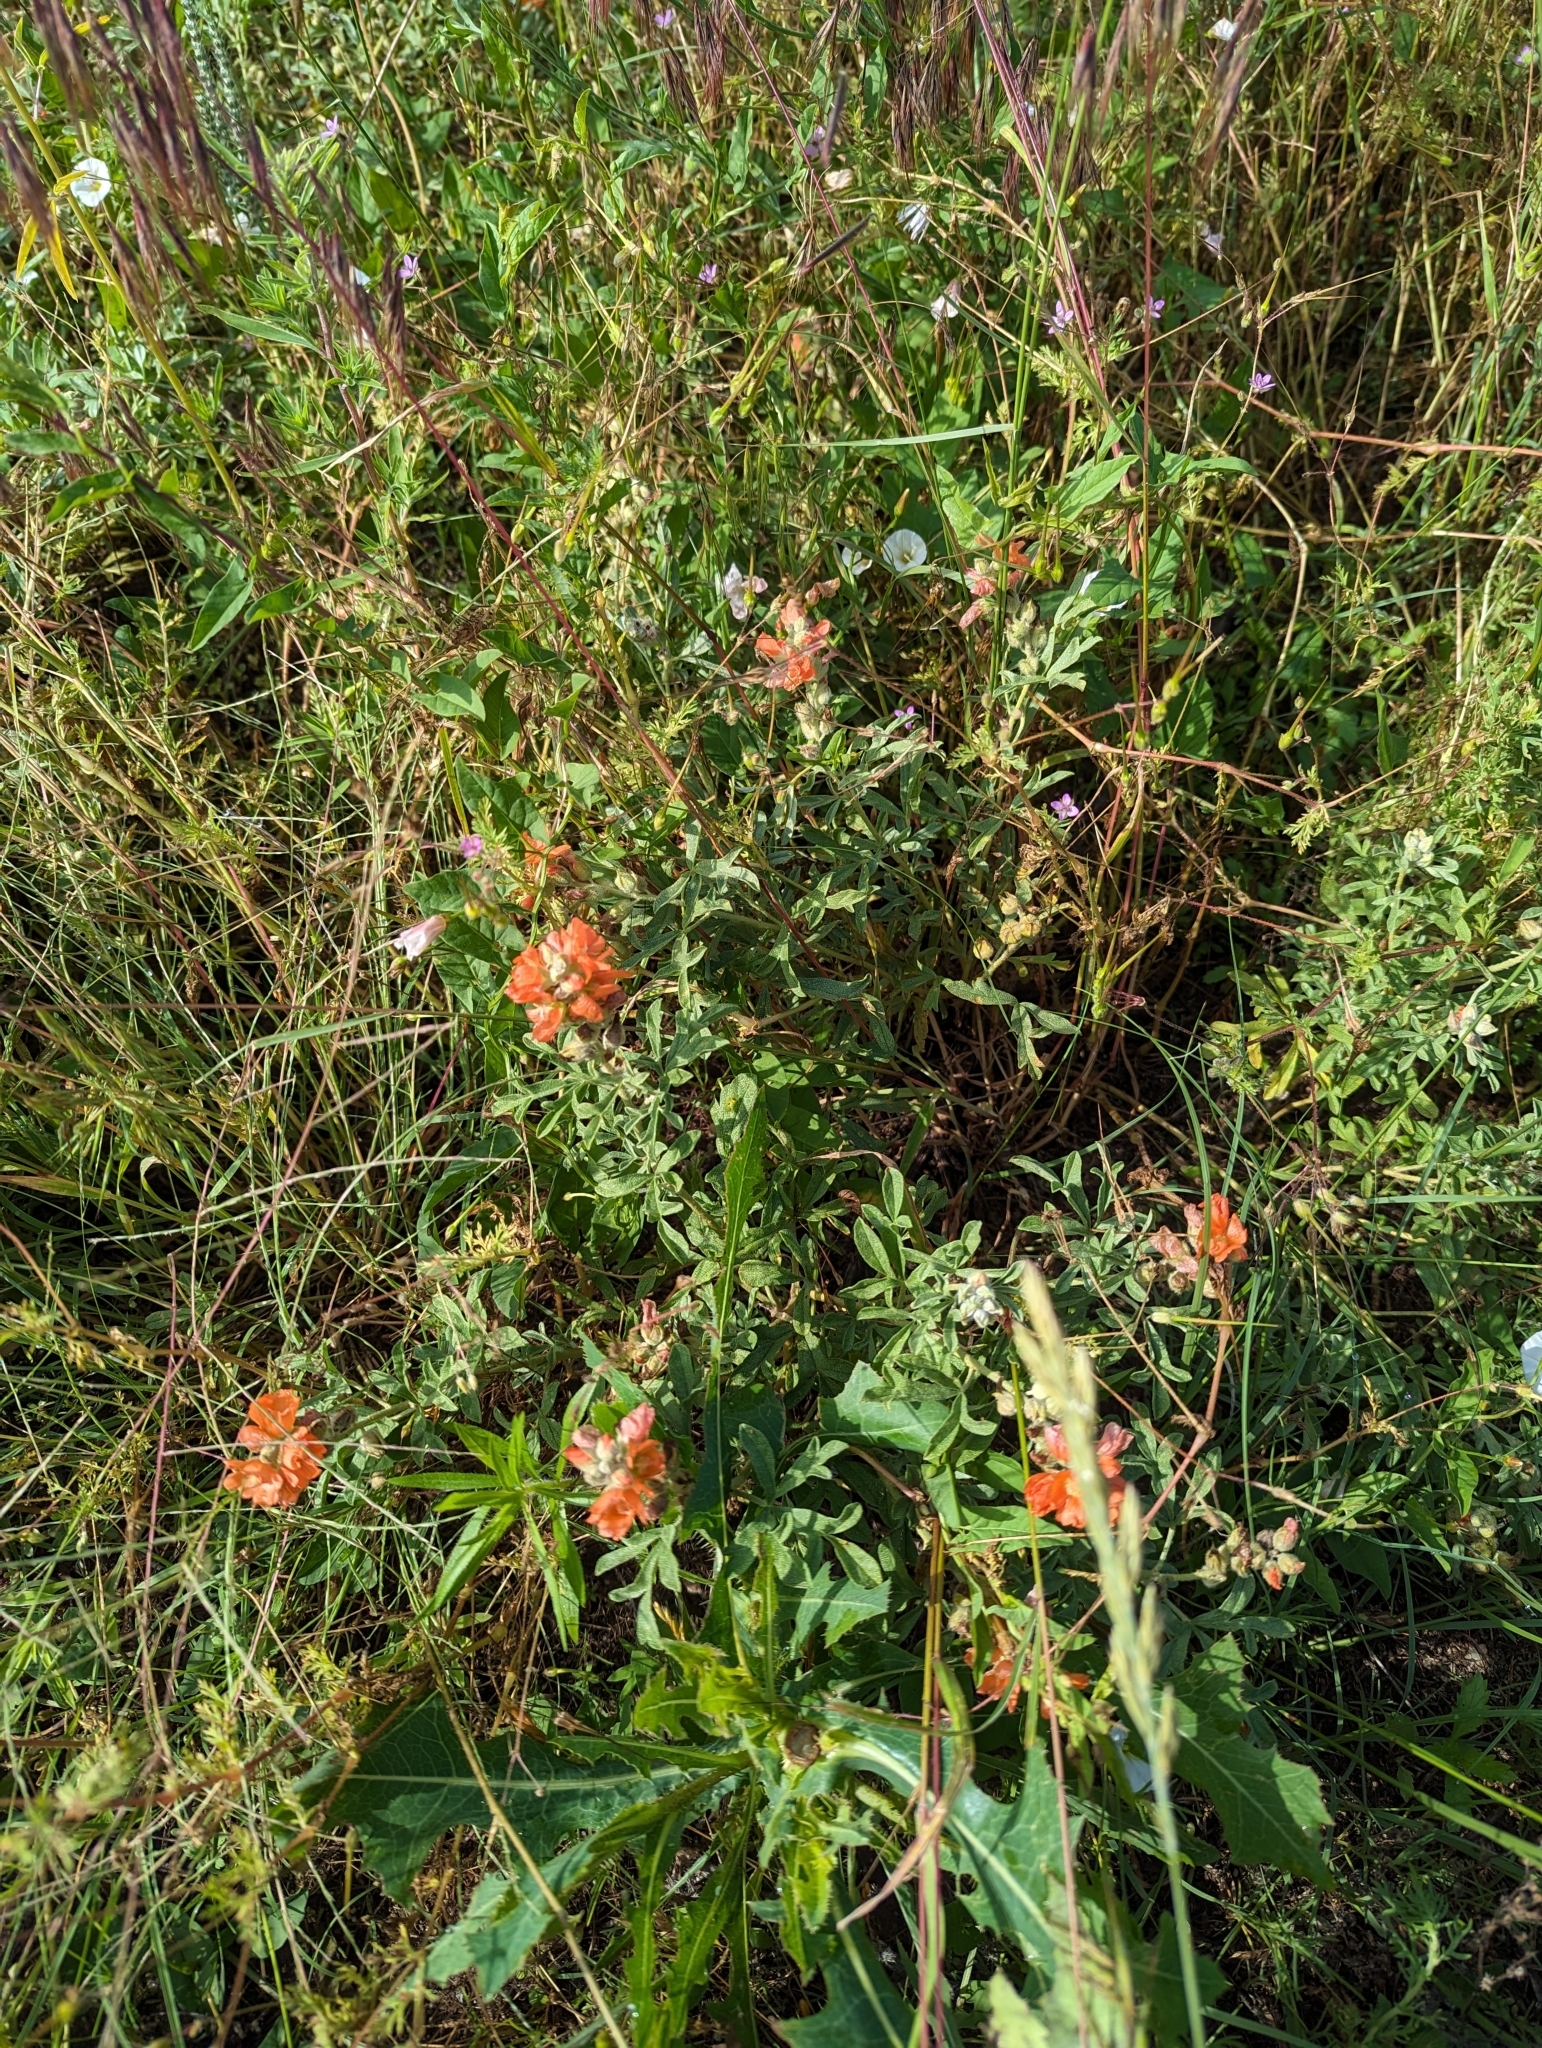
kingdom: Plantae
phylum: Tracheophyta
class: Magnoliopsida
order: Malvales
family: Malvaceae
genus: Sphaeralcea
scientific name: Sphaeralcea coccinea
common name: Moss-rose
